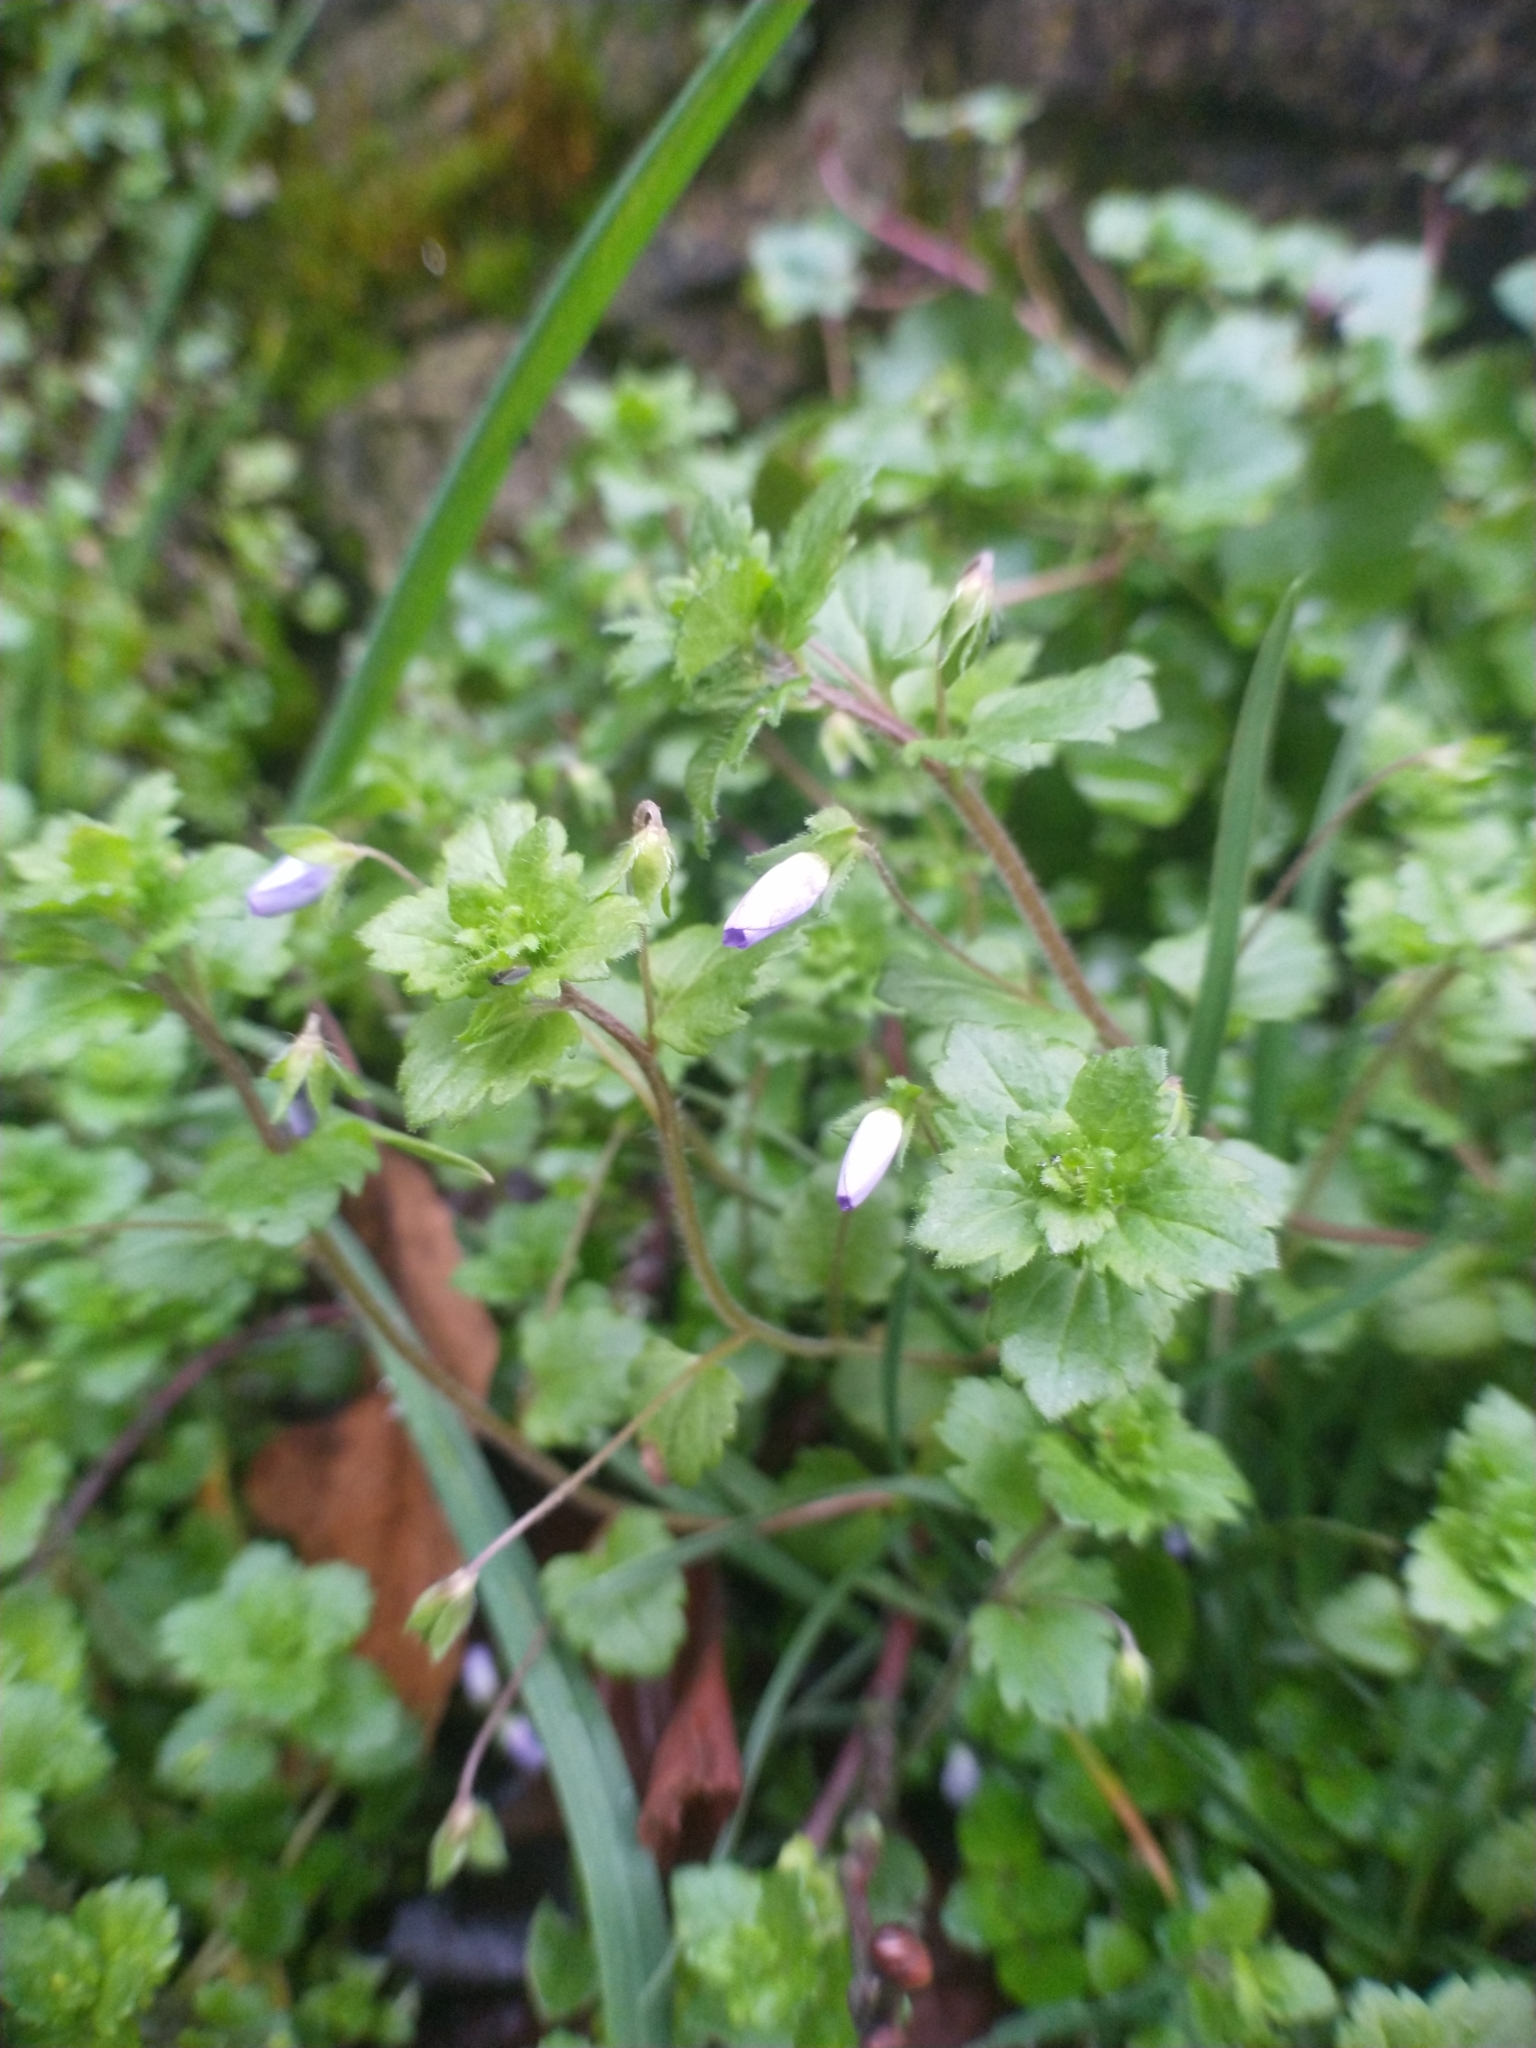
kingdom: Plantae
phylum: Tracheophyta
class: Magnoliopsida
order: Lamiales
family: Plantaginaceae
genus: Veronica
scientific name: Veronica persica
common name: Common field-speedwell
